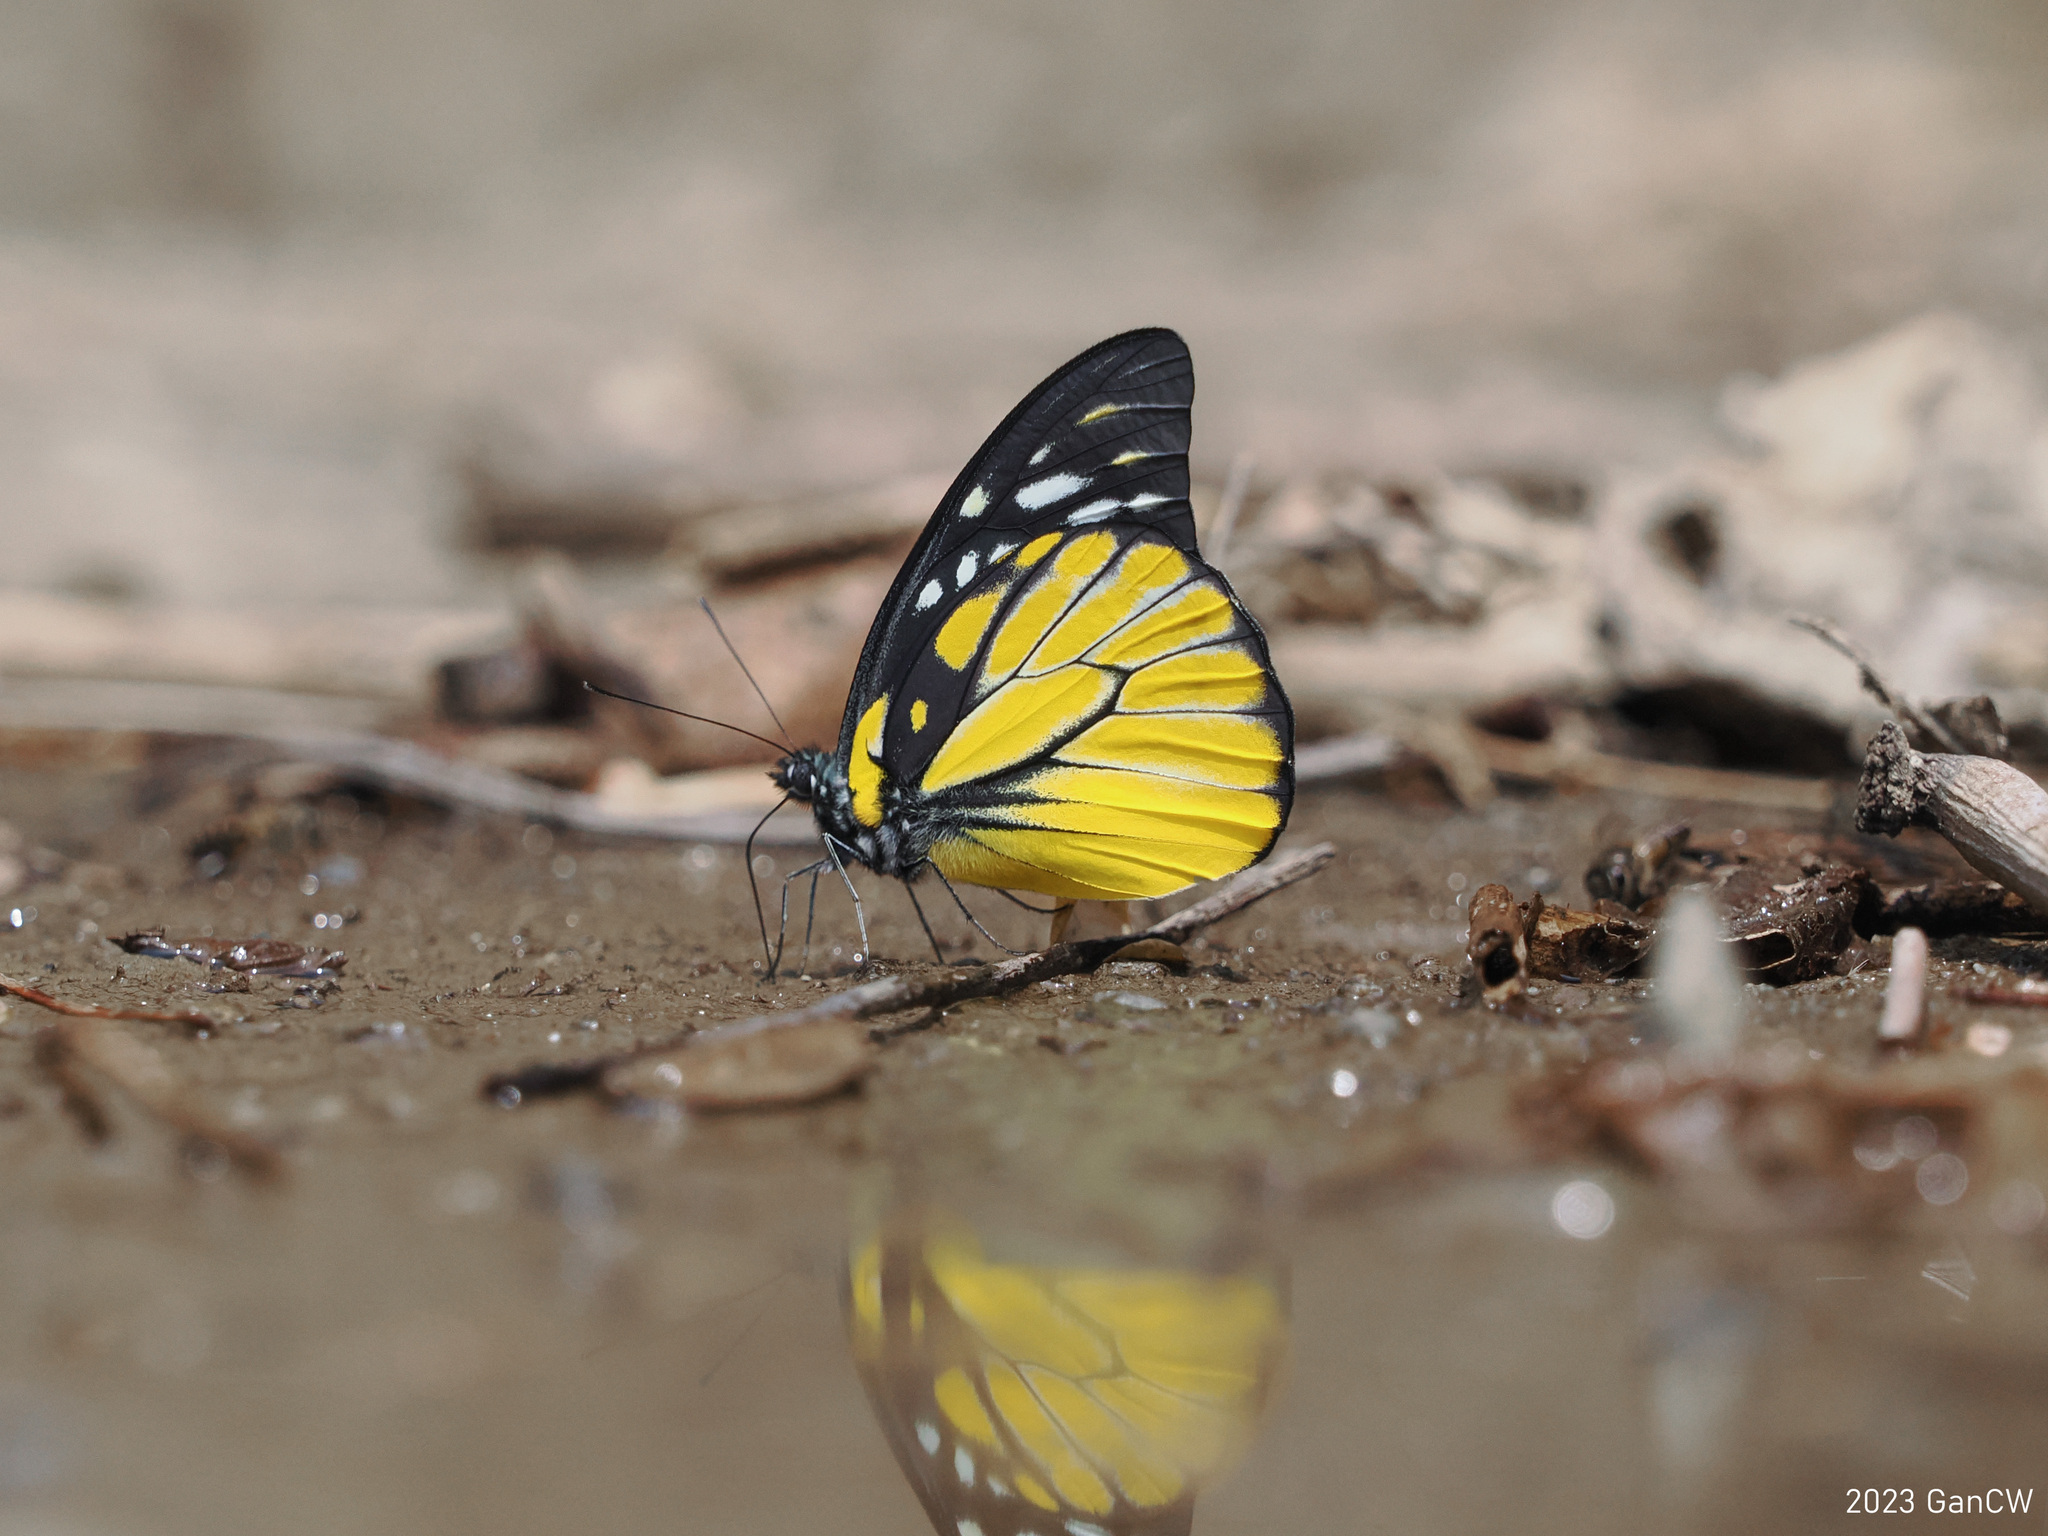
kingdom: Animalia
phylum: Arthropoda
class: Insecta
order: Lepidoptera
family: Pieridae
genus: Prioneris
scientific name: Prioneris thestylis
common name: Spotted sawtooth
